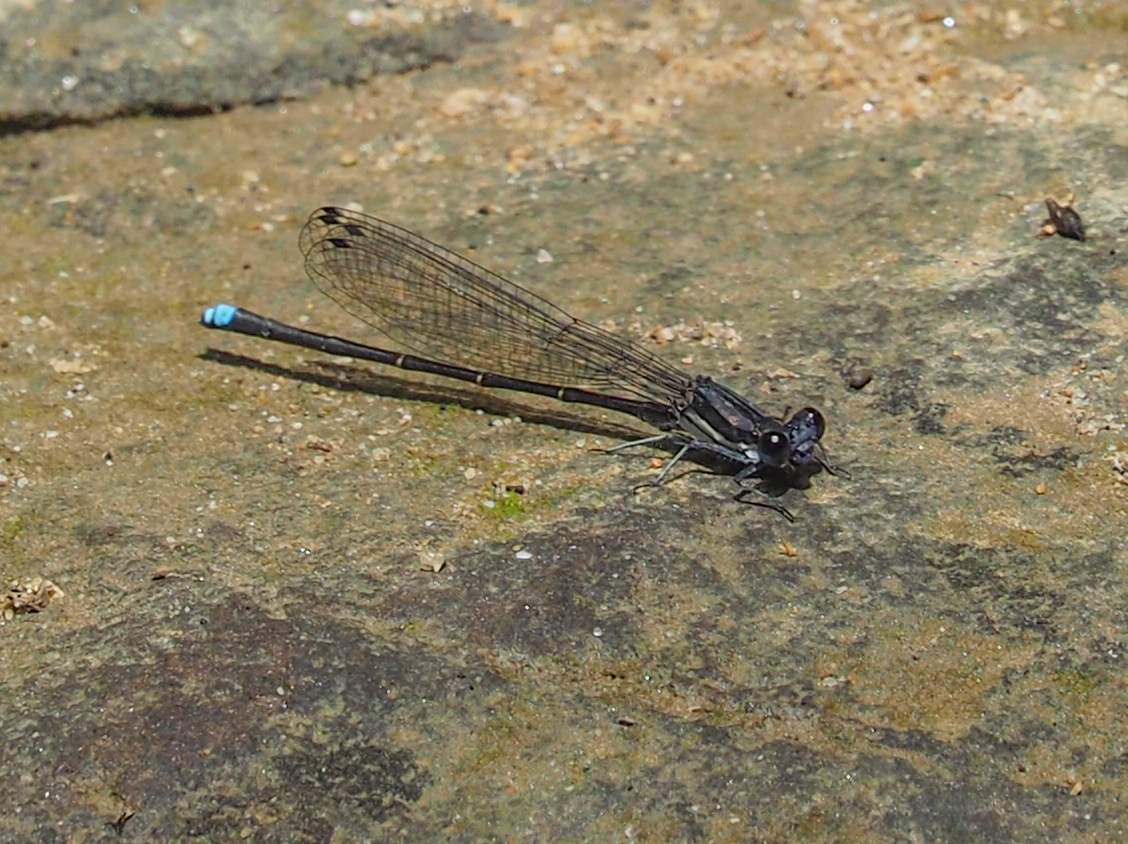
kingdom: Animalia
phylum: Arthropoda
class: Insecta
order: Odonata
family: Coenagrionidae
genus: Argia
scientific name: Argia tibialis
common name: Blue-tipped dancer
